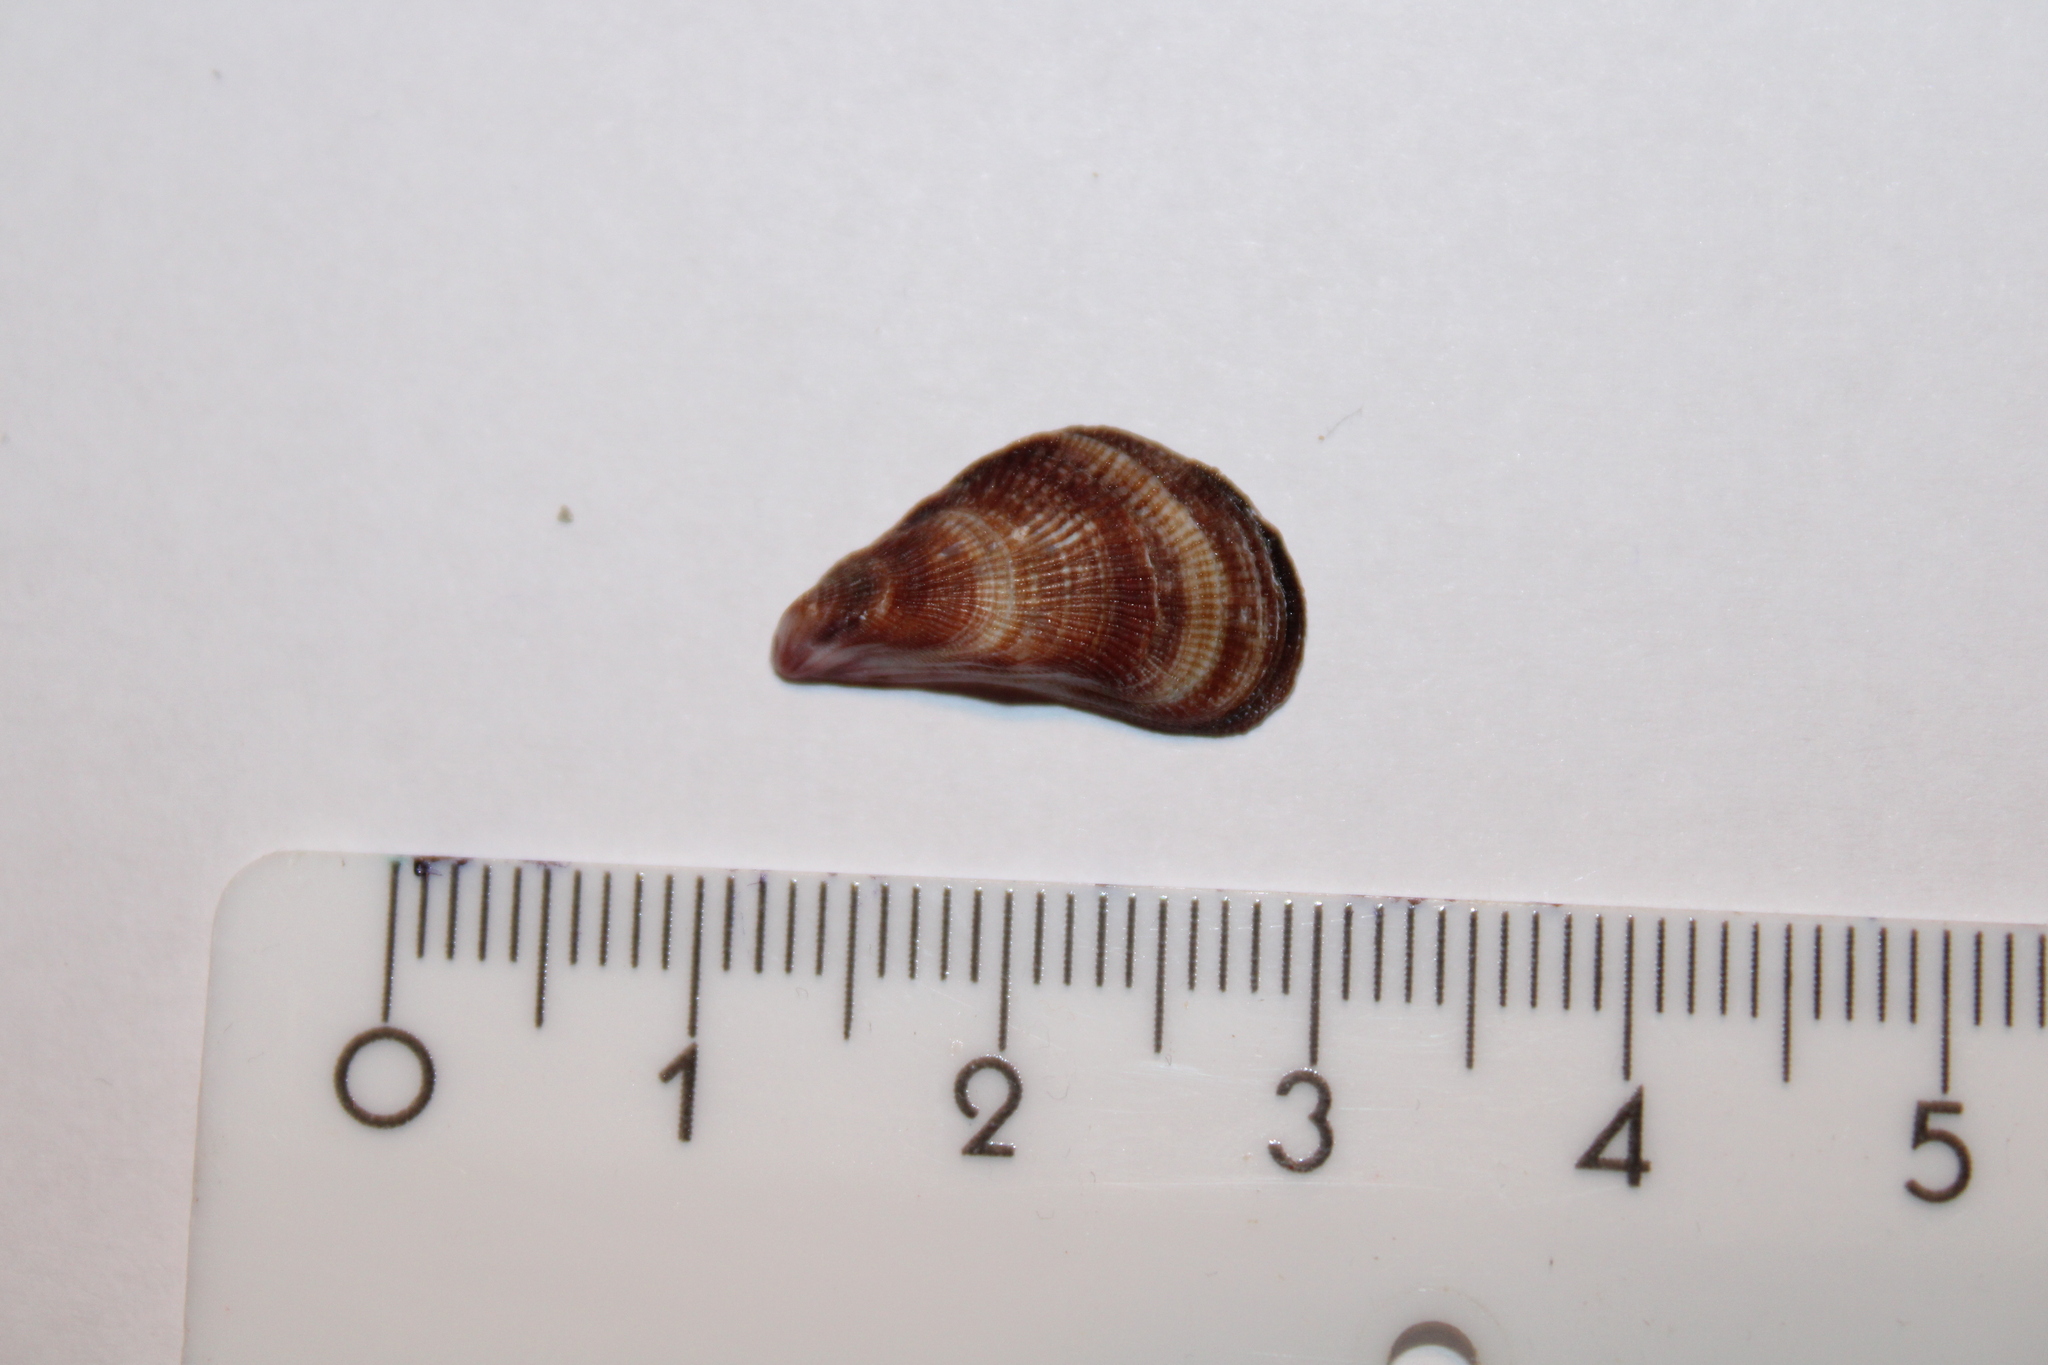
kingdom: Animalia
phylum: Mollusca
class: Bivalvia
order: Mytilida
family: Mytilidae
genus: Brachidontes
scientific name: Brachidontes pharaonis
